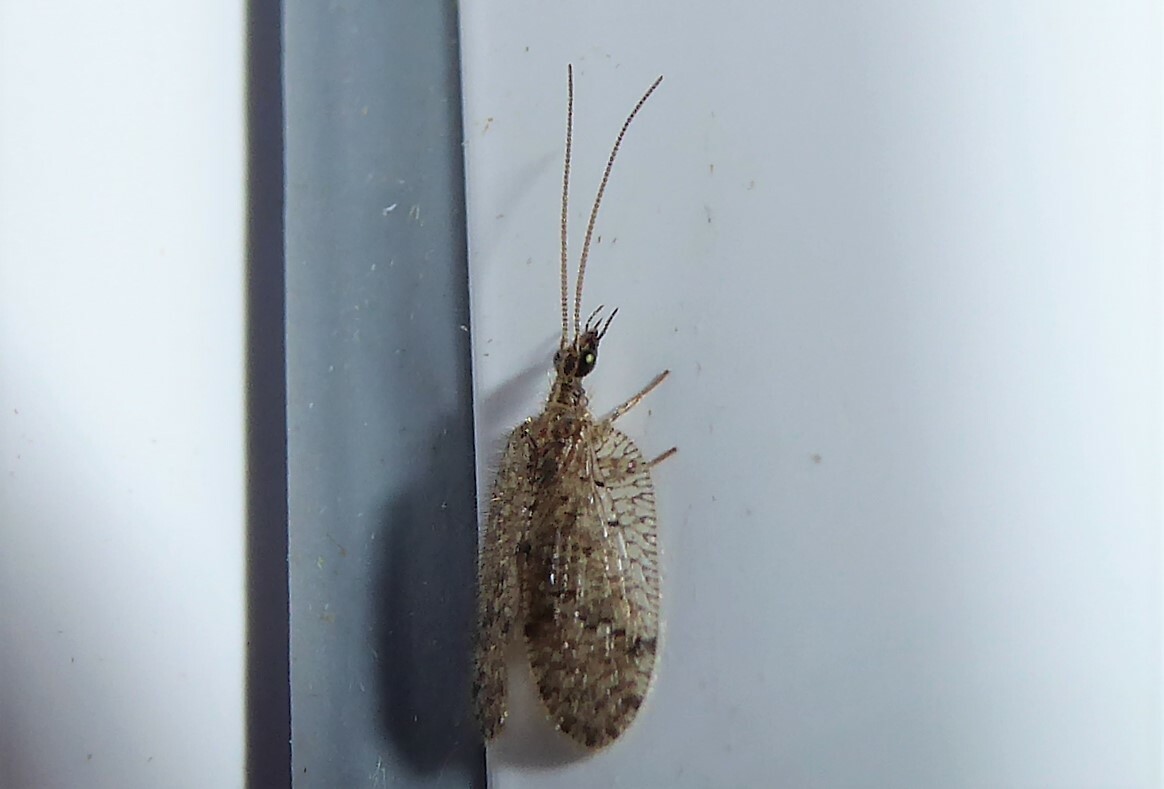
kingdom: Animalia
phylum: Arthropoda
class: Insecta
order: Neuroptera
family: Hemerobiidae
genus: Psectra
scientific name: Psectra nakaharai
